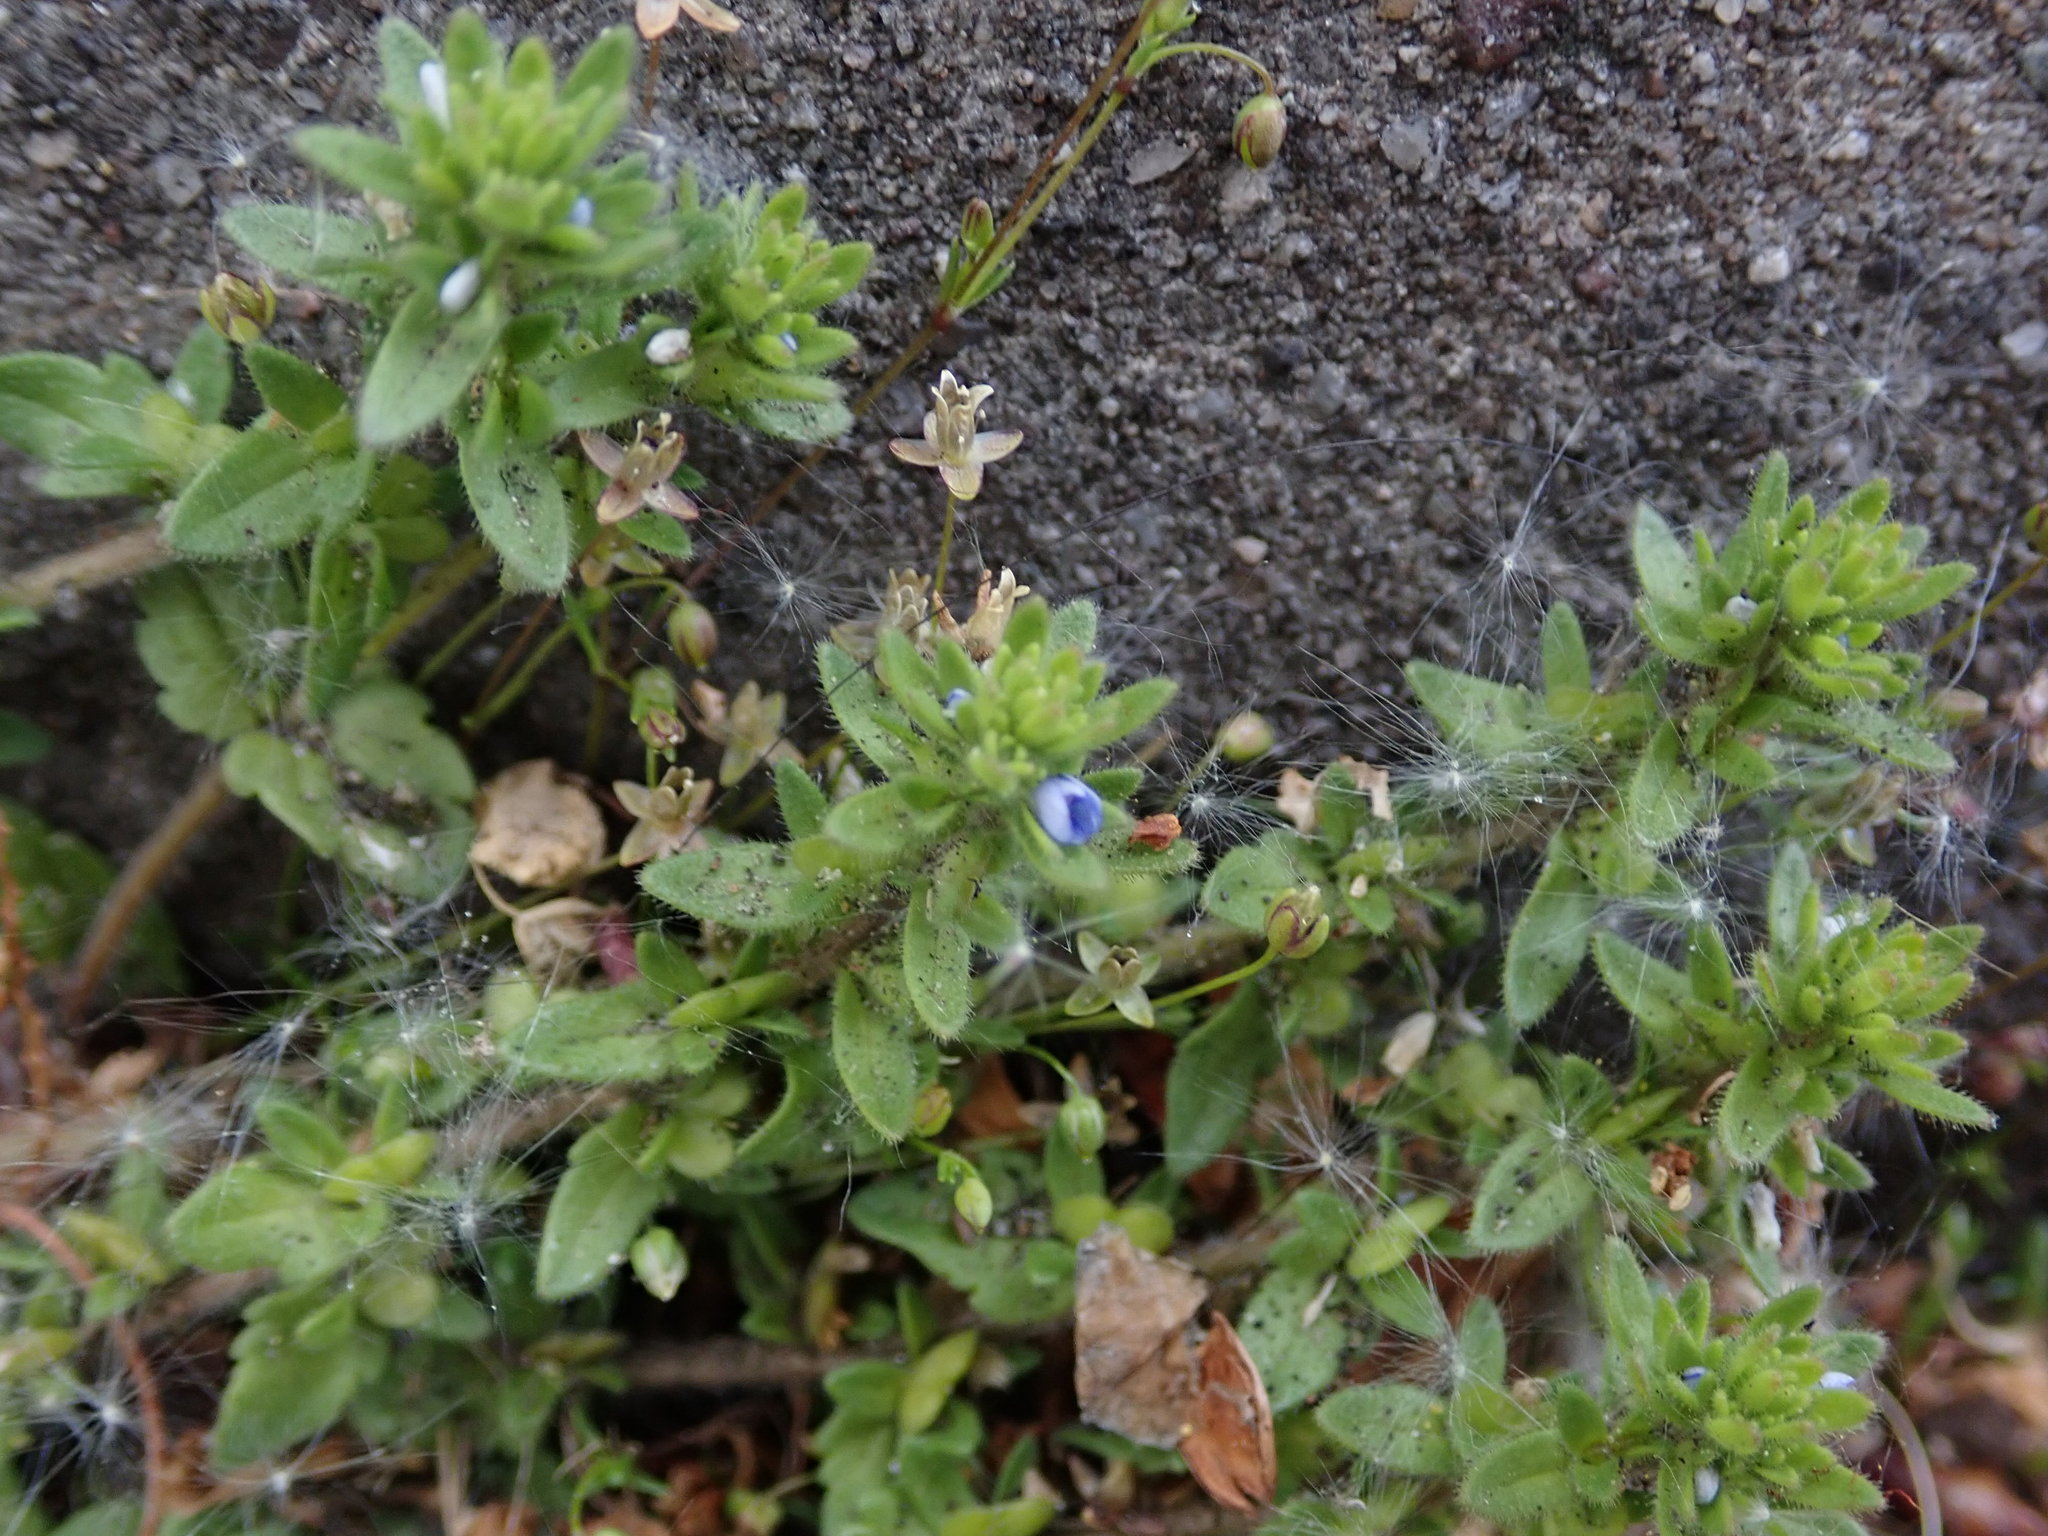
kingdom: Plantae
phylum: Tracheophyta
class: Magnoliopsida
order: Lamiales
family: Plantaginaceae
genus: Veronica
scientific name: Veronica arvensis
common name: Corn speedwell
